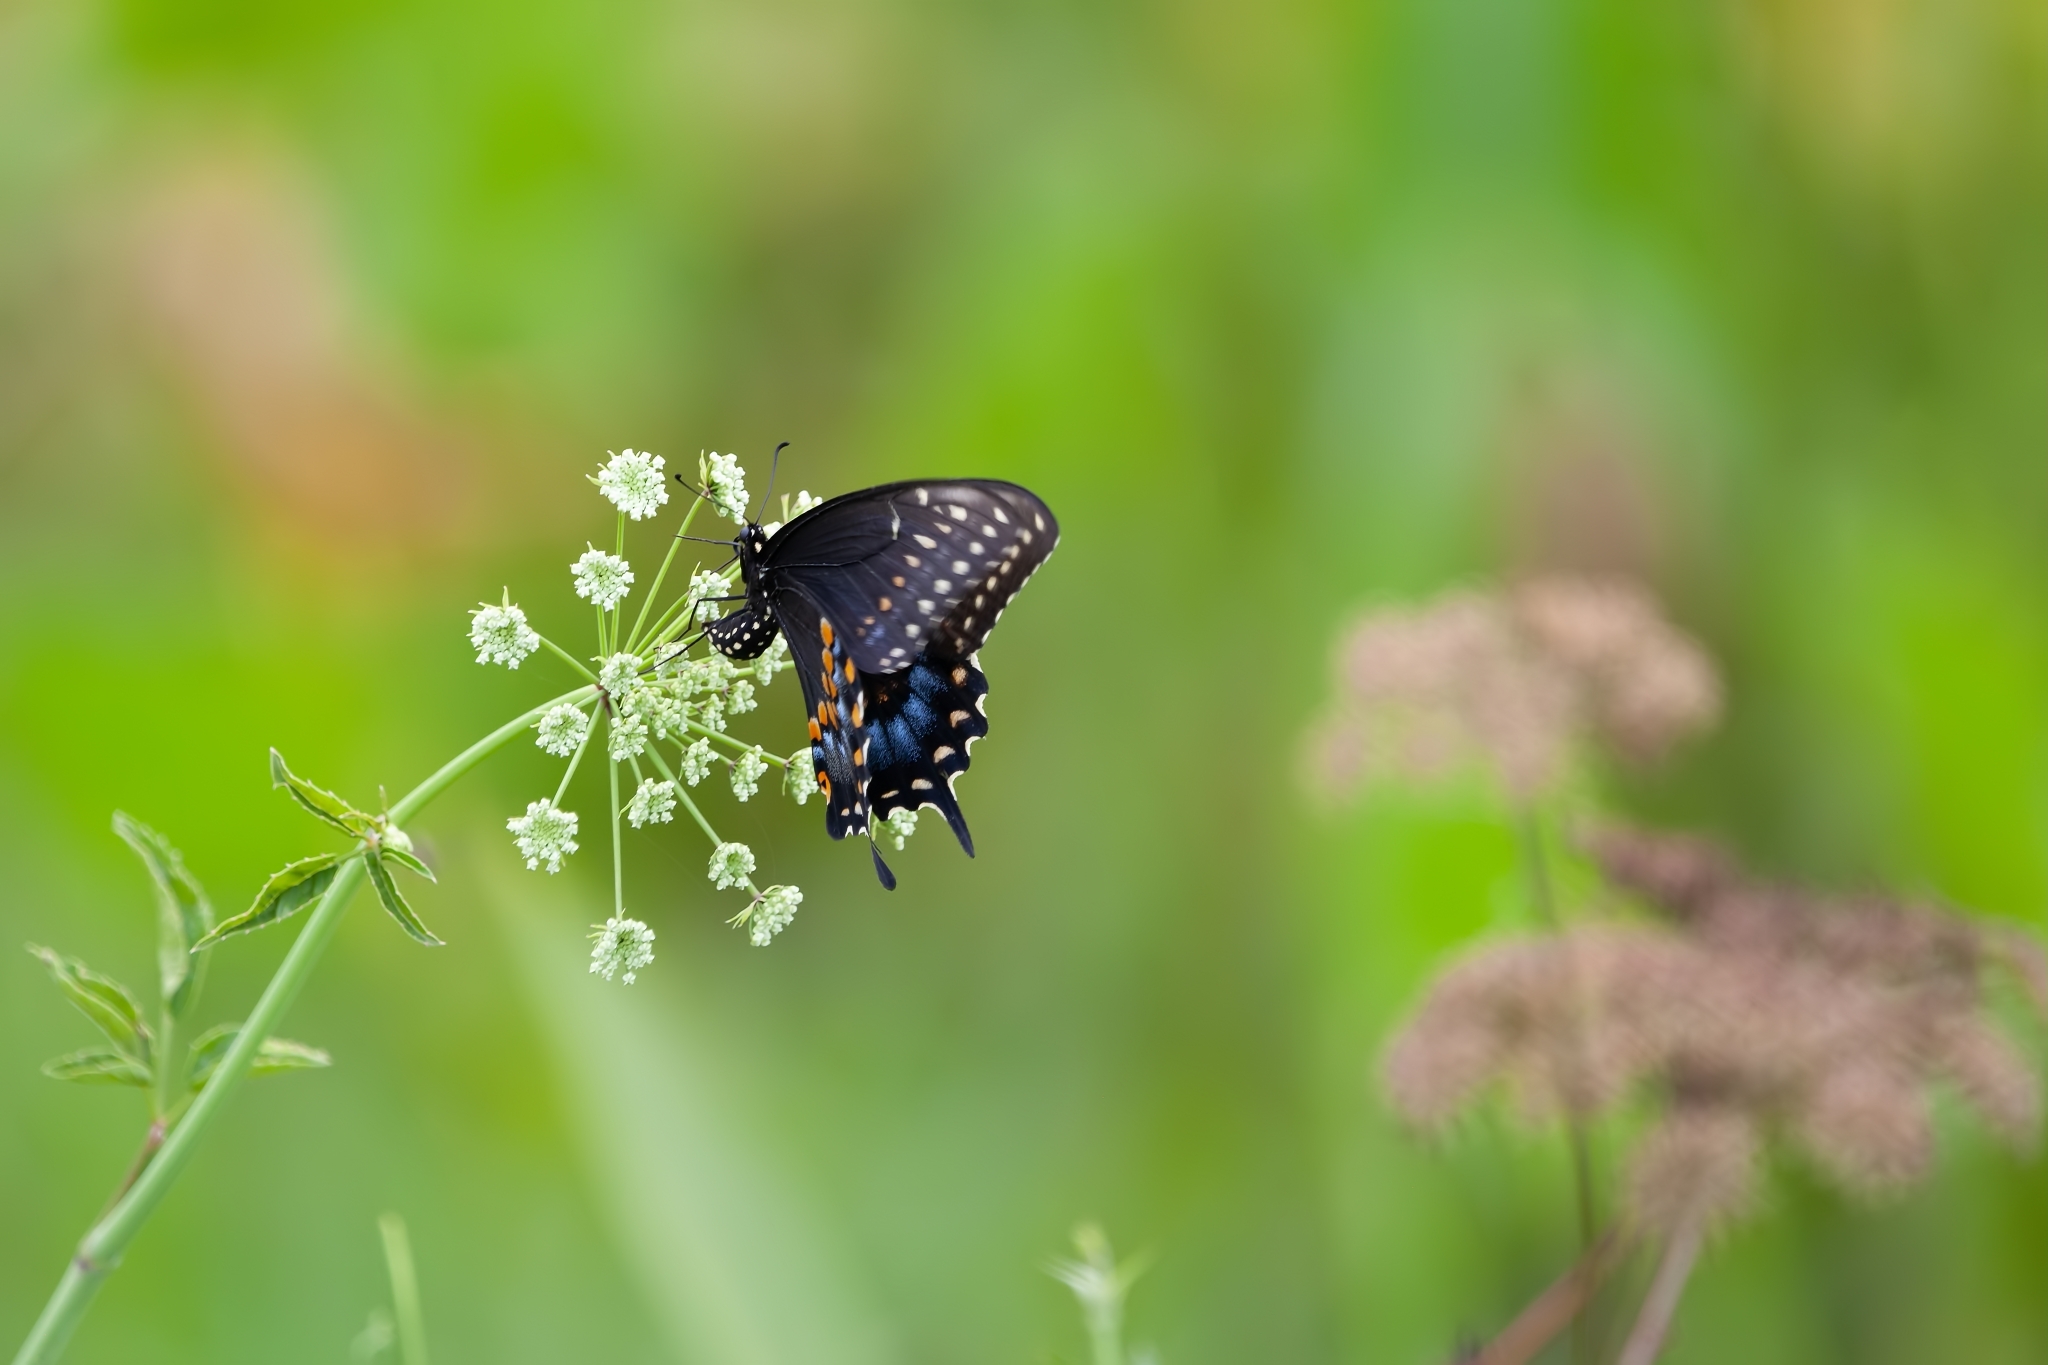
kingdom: Animalia
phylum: Arthropoda
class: Insecta
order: Lepidoptera
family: Papilionidae
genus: Papilio
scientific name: Papilio polyxenes
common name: Black swallowtail
